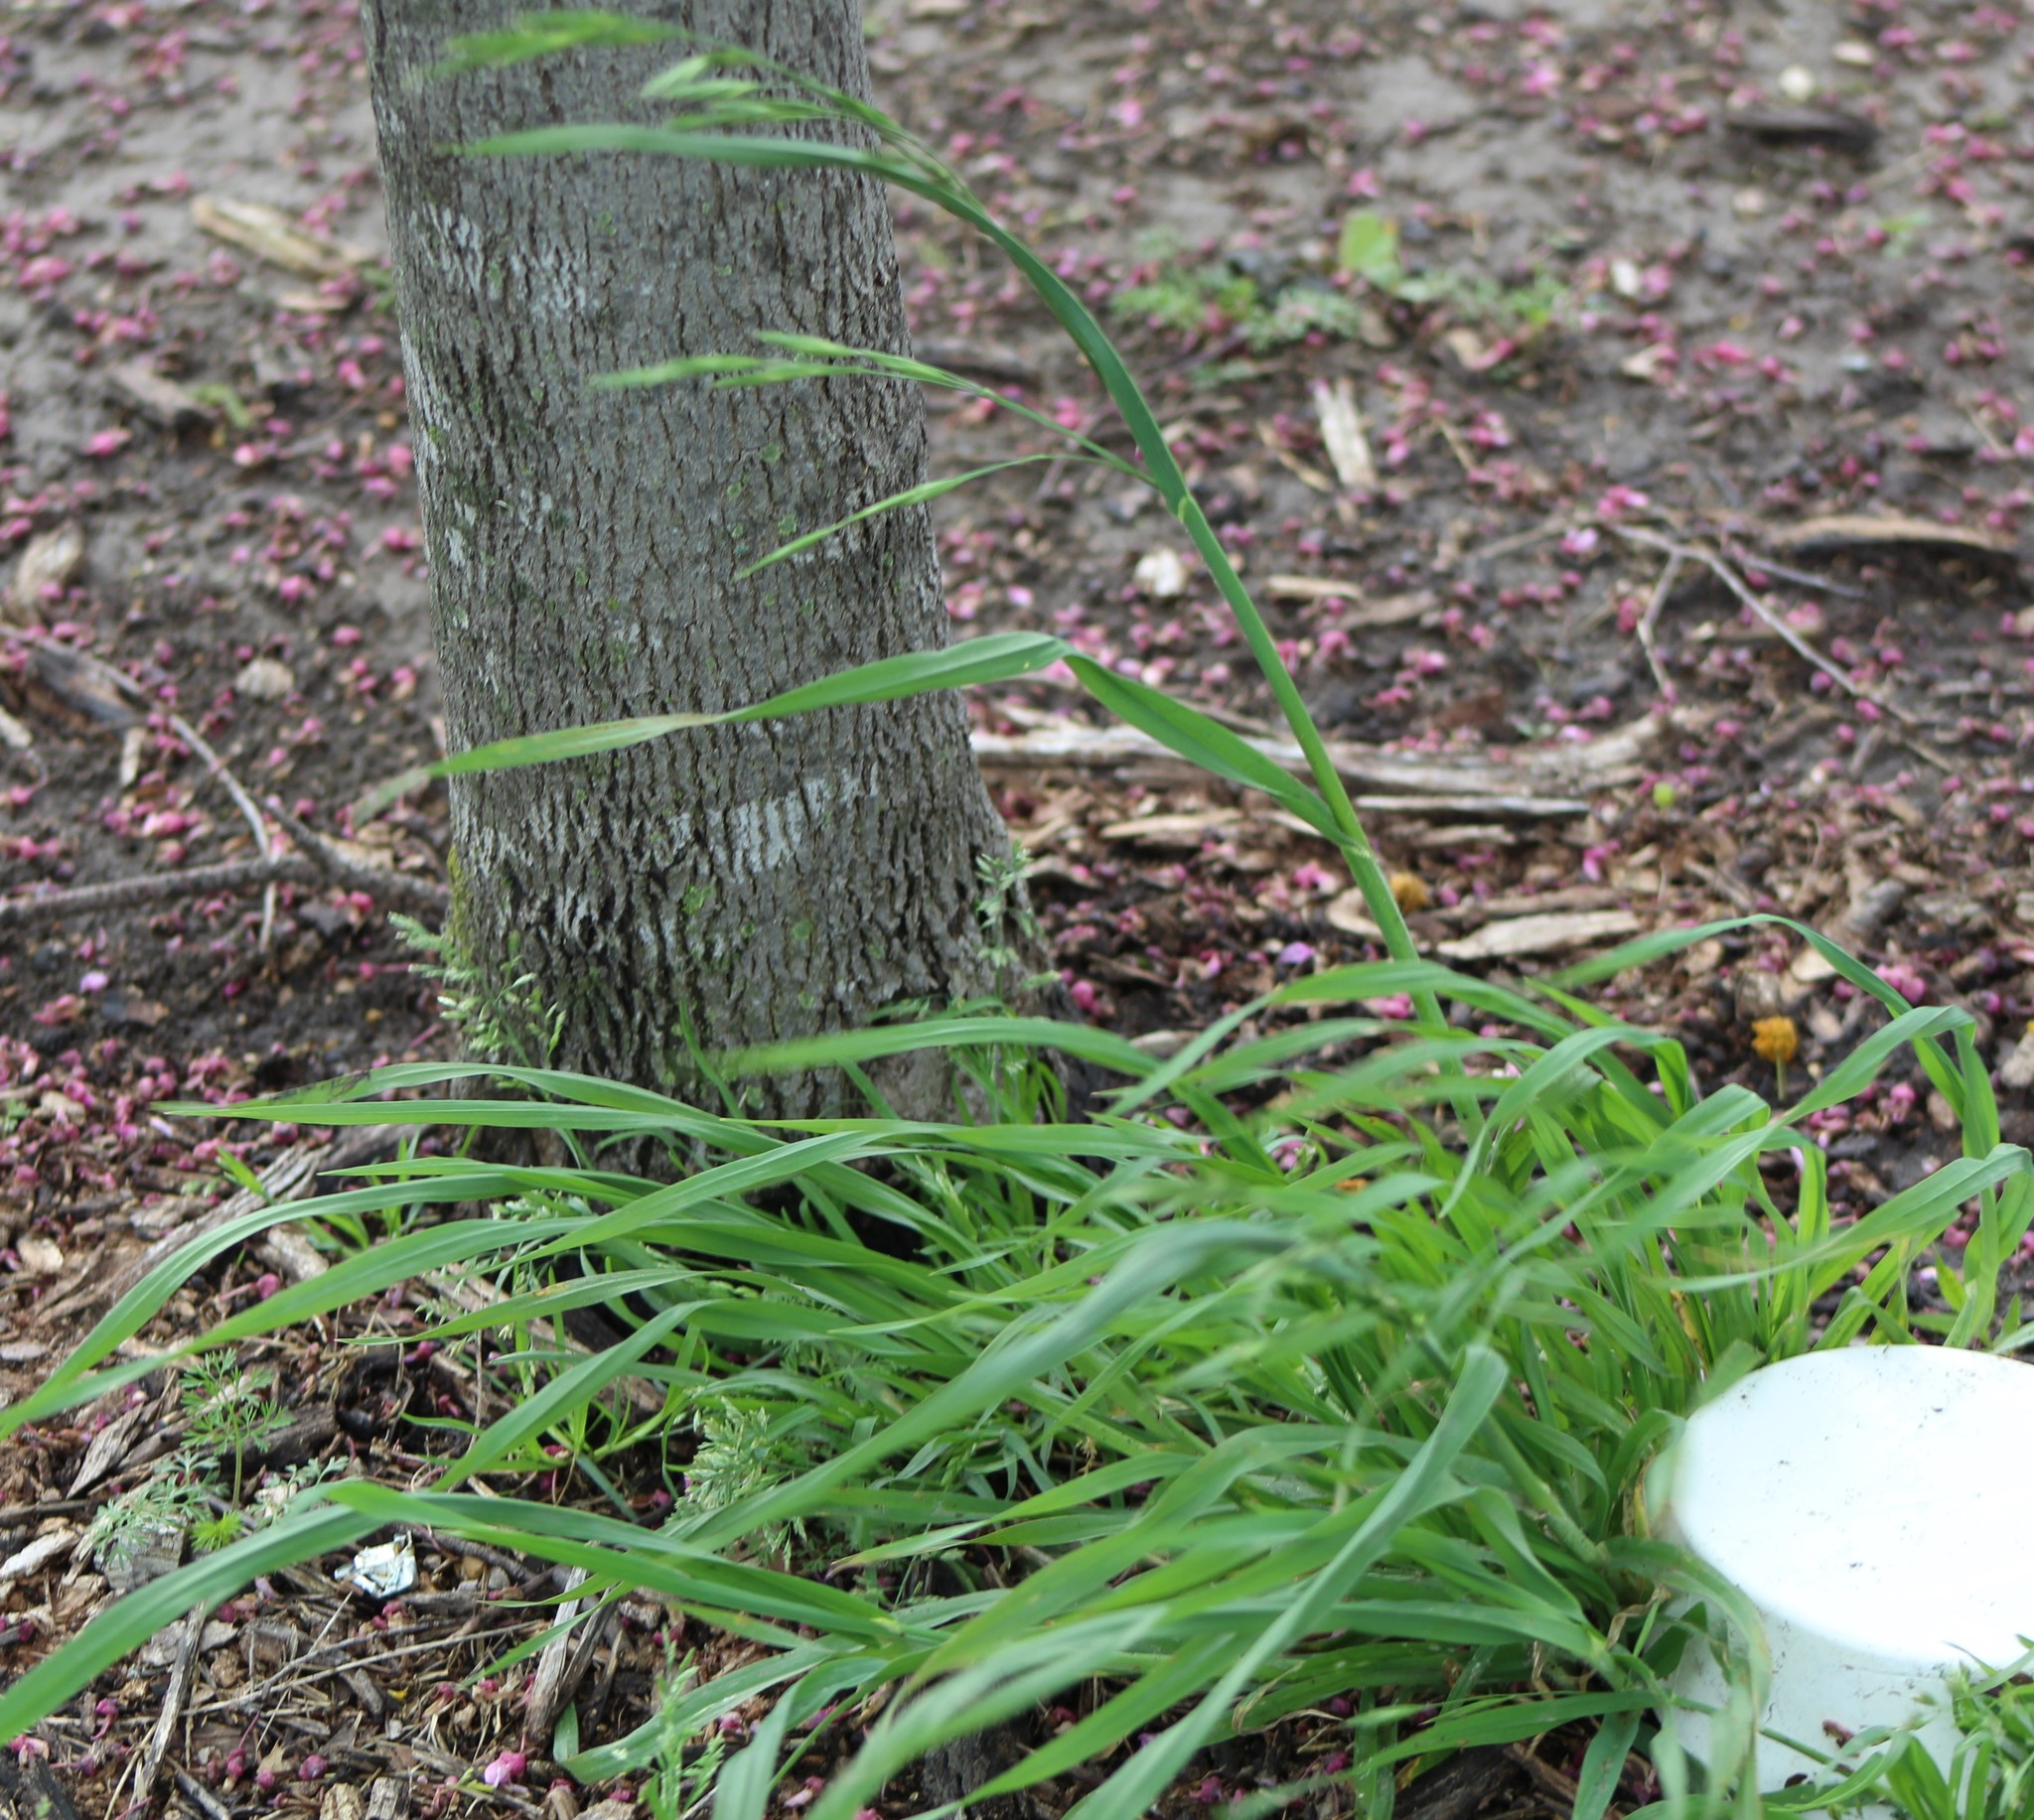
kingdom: Plantae
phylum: Tracheophyta
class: Liliopsida
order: Poales
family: Poaceae
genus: Bromus
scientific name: Bromus catharticus
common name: Rescuegrass
